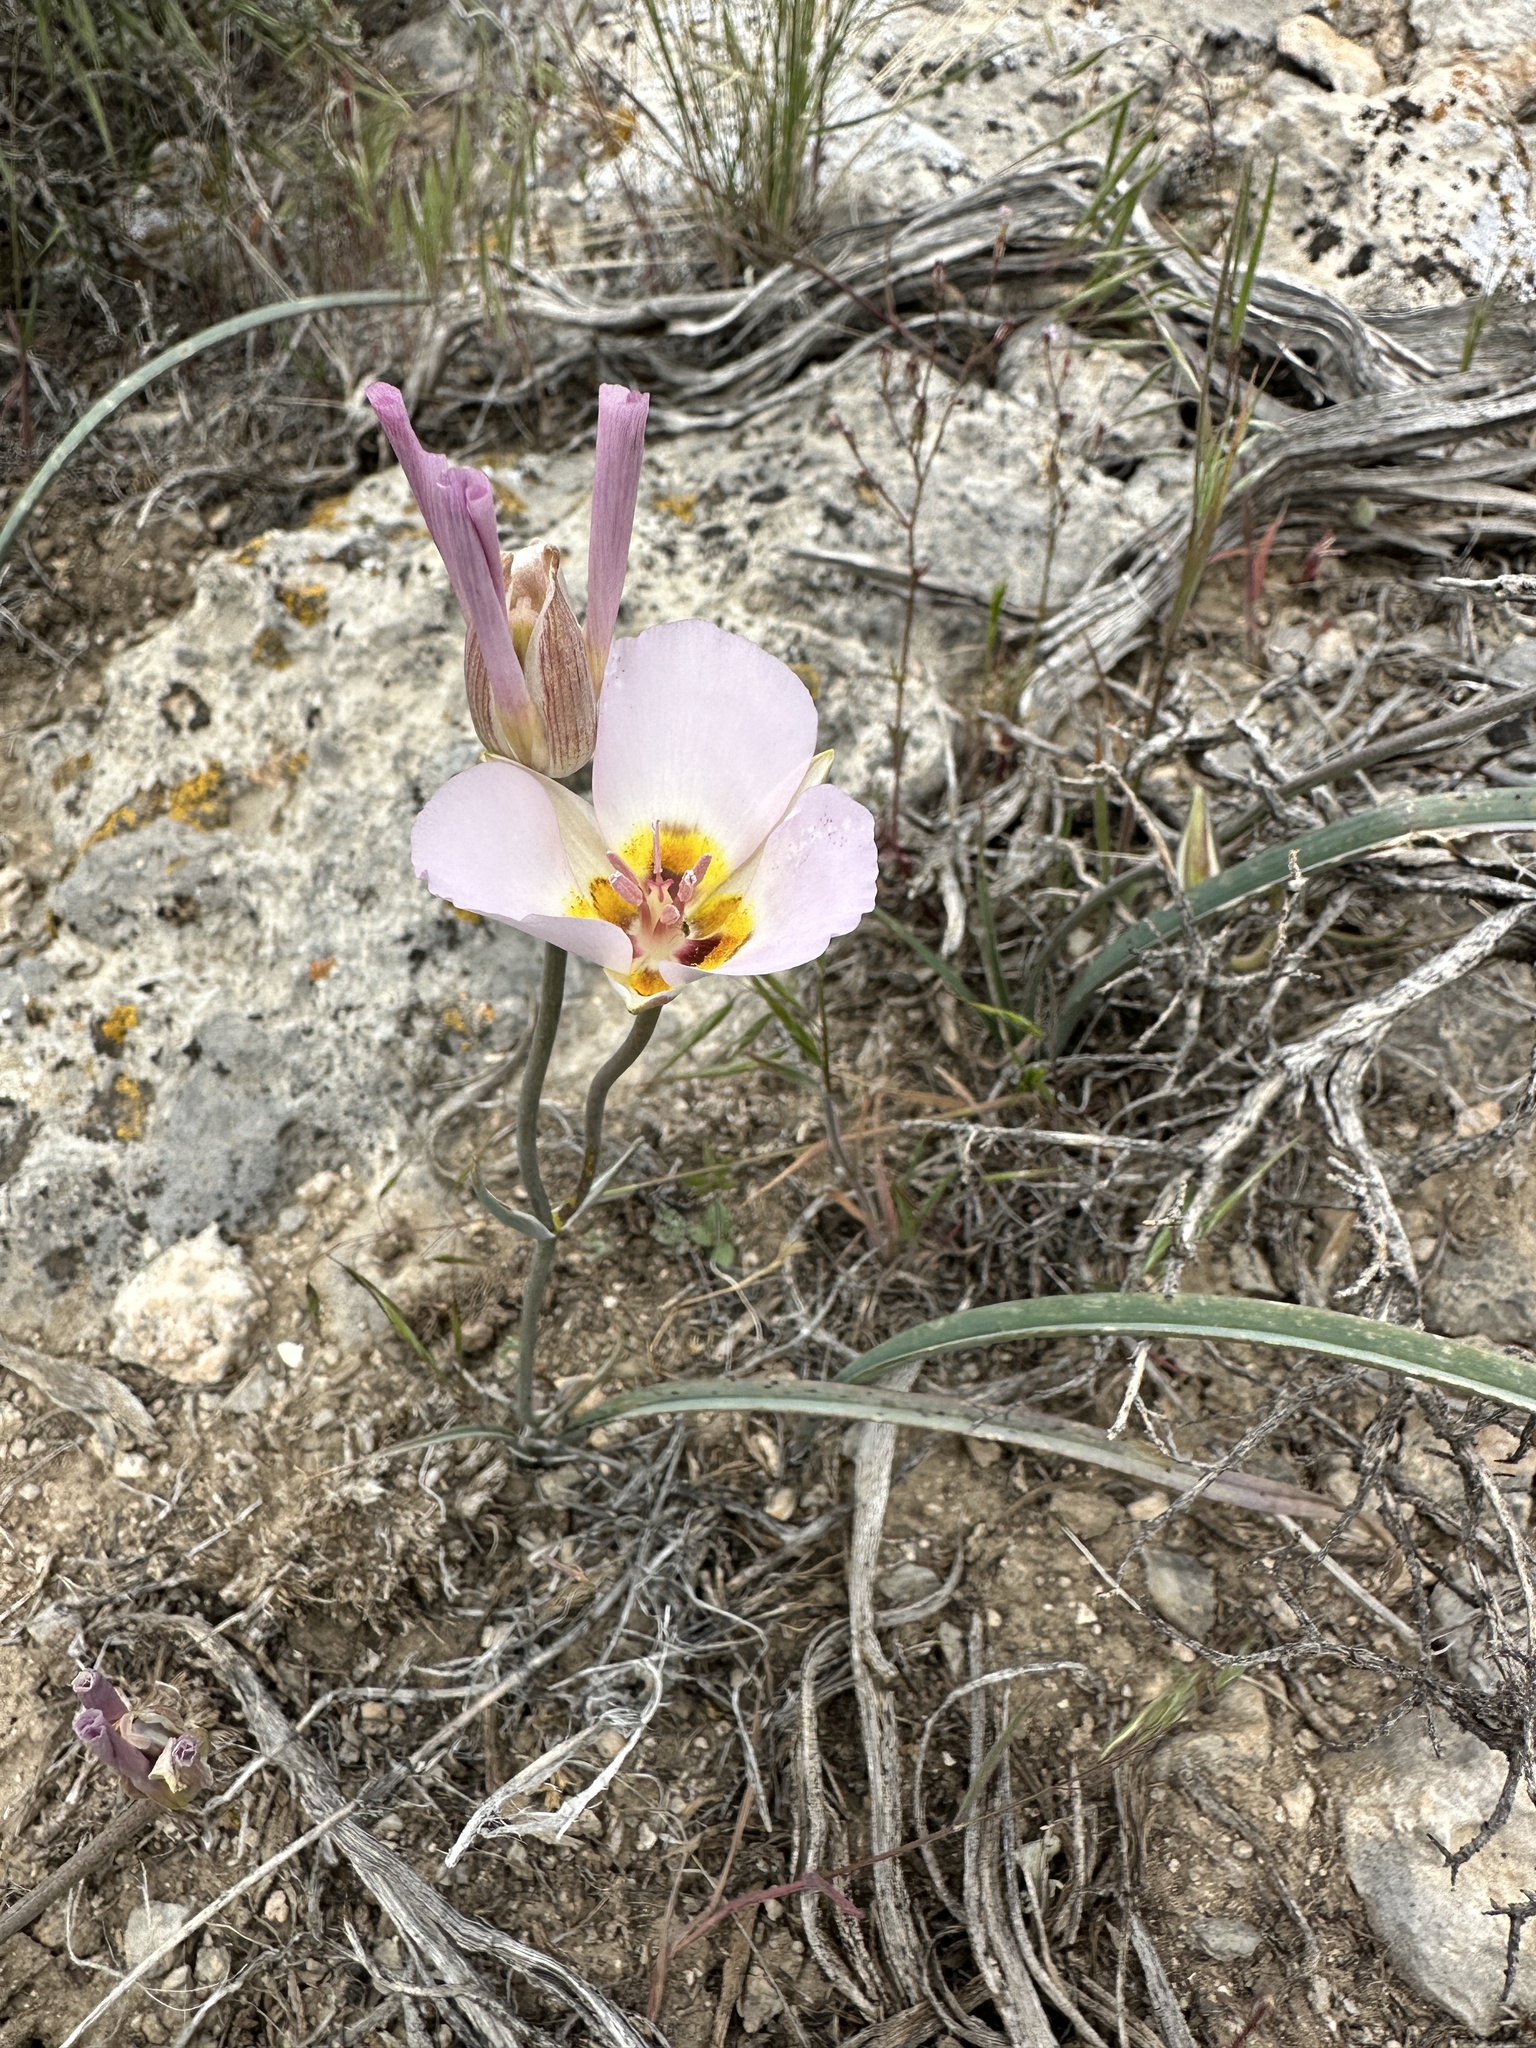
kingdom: Plantae
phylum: Tracheophyta
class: Liliopsida
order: Liliales
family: Liliaceae
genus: Calochortus
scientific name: Calochortus flexuosus
